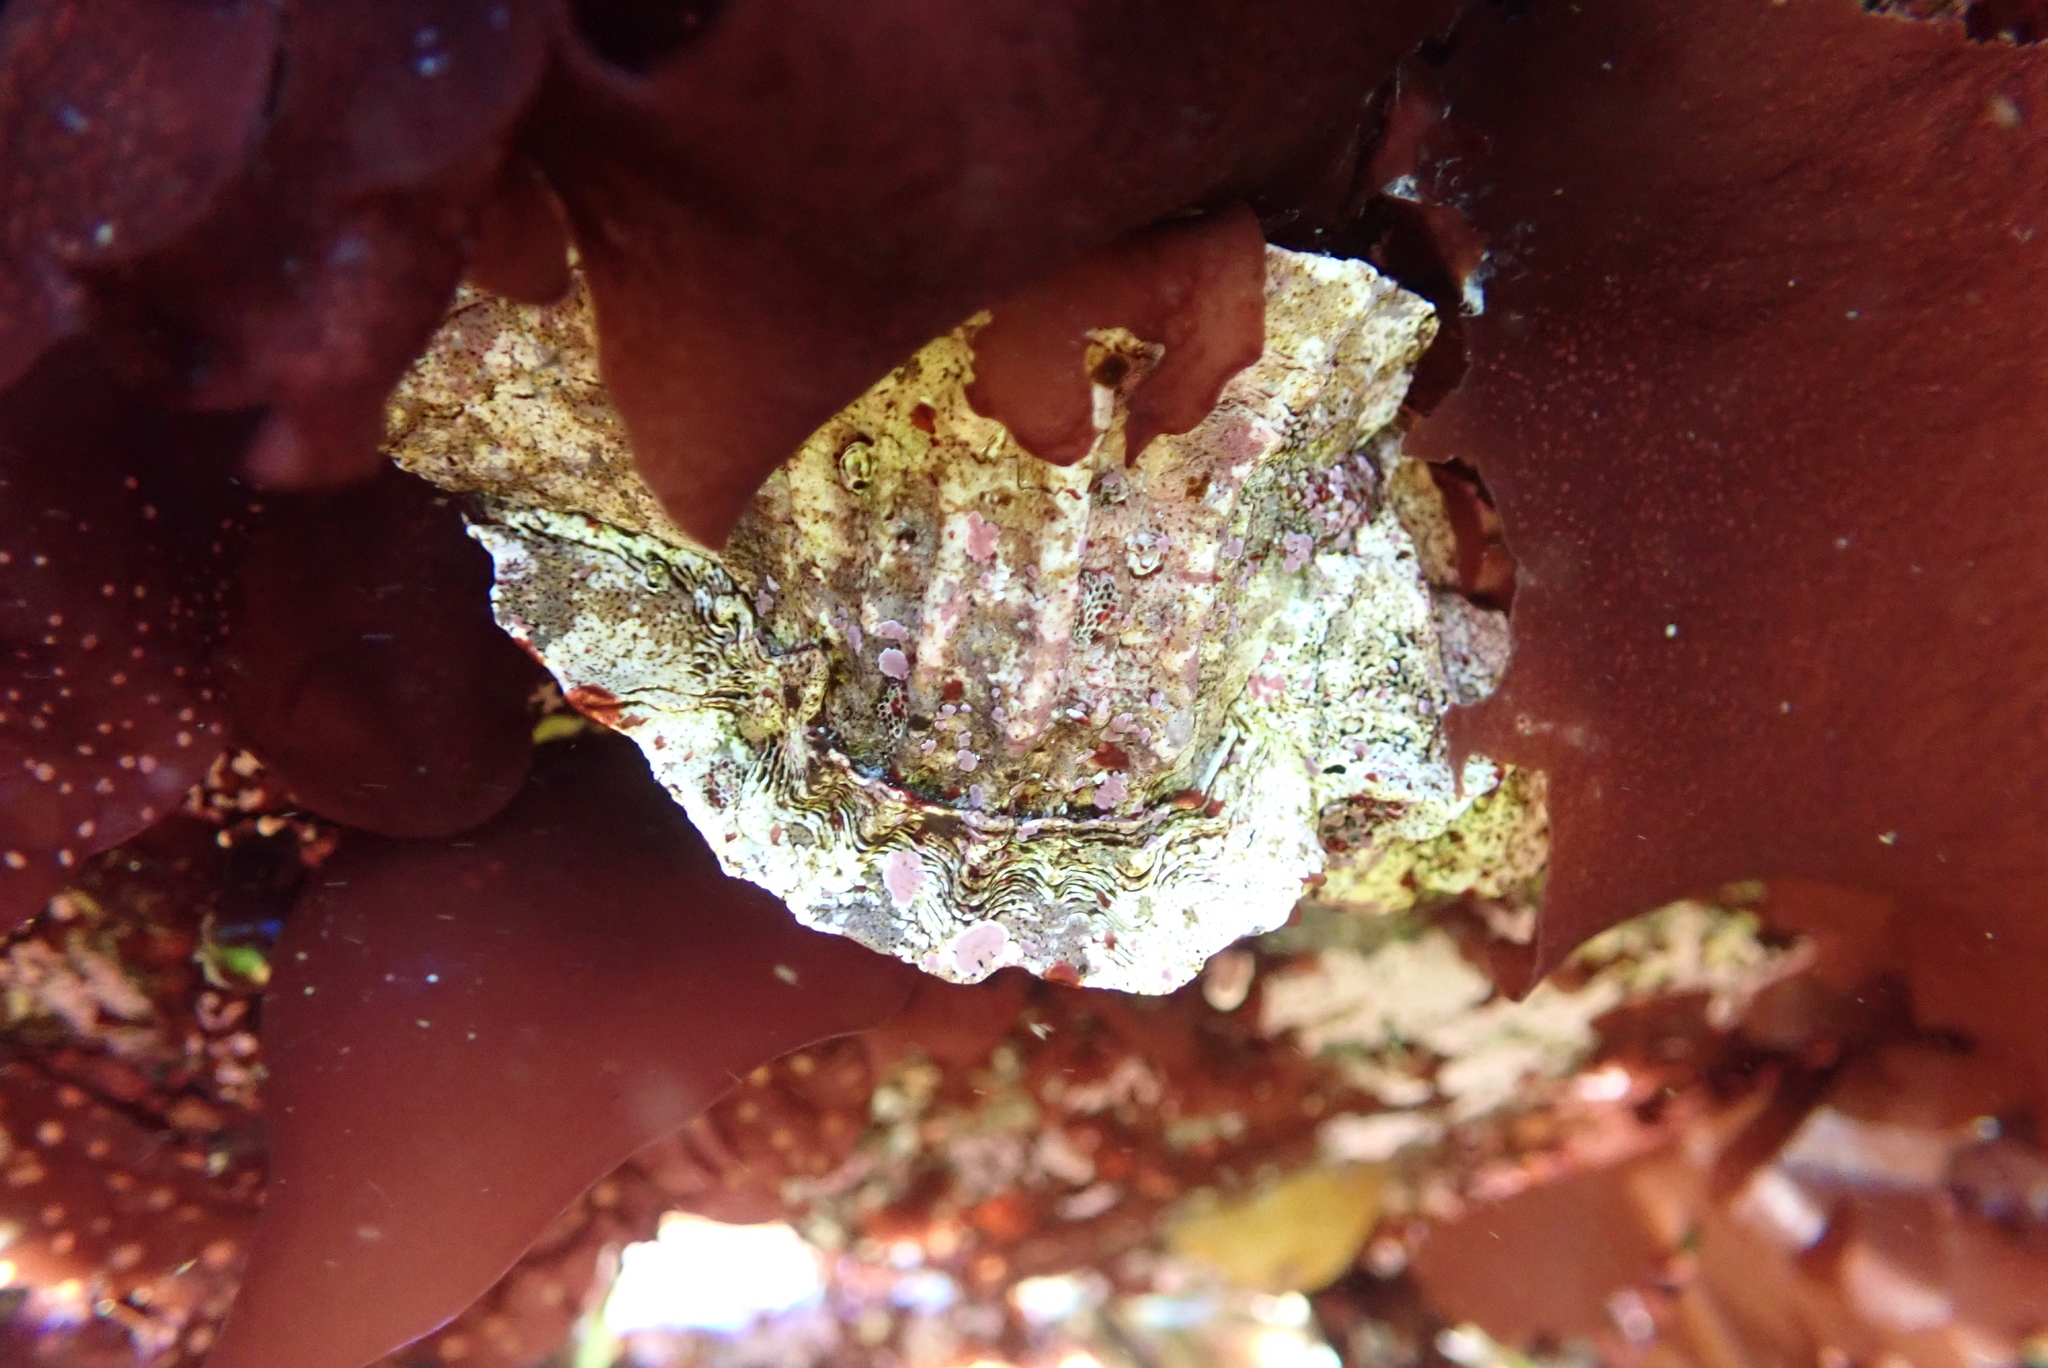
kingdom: Animalia
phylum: Mollusca
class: Gastropoda
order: Neogastropoda
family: Muricidae
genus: Ceratostoma
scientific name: Ceratostoma foliatum
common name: Foliate thorn purpura
